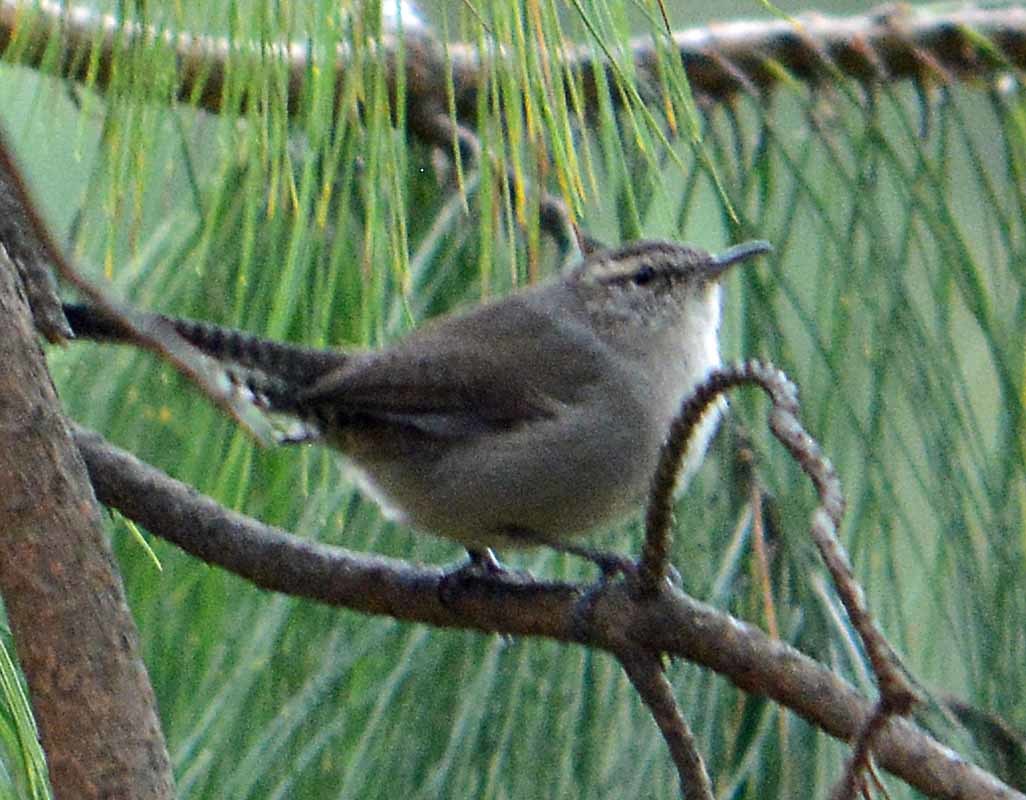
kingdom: Animalia
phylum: Chordata
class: Aves
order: Passeriformes
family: Troglodytidae
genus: Thryomanes
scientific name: Thryomanes bewickii
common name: Bewick's wren
